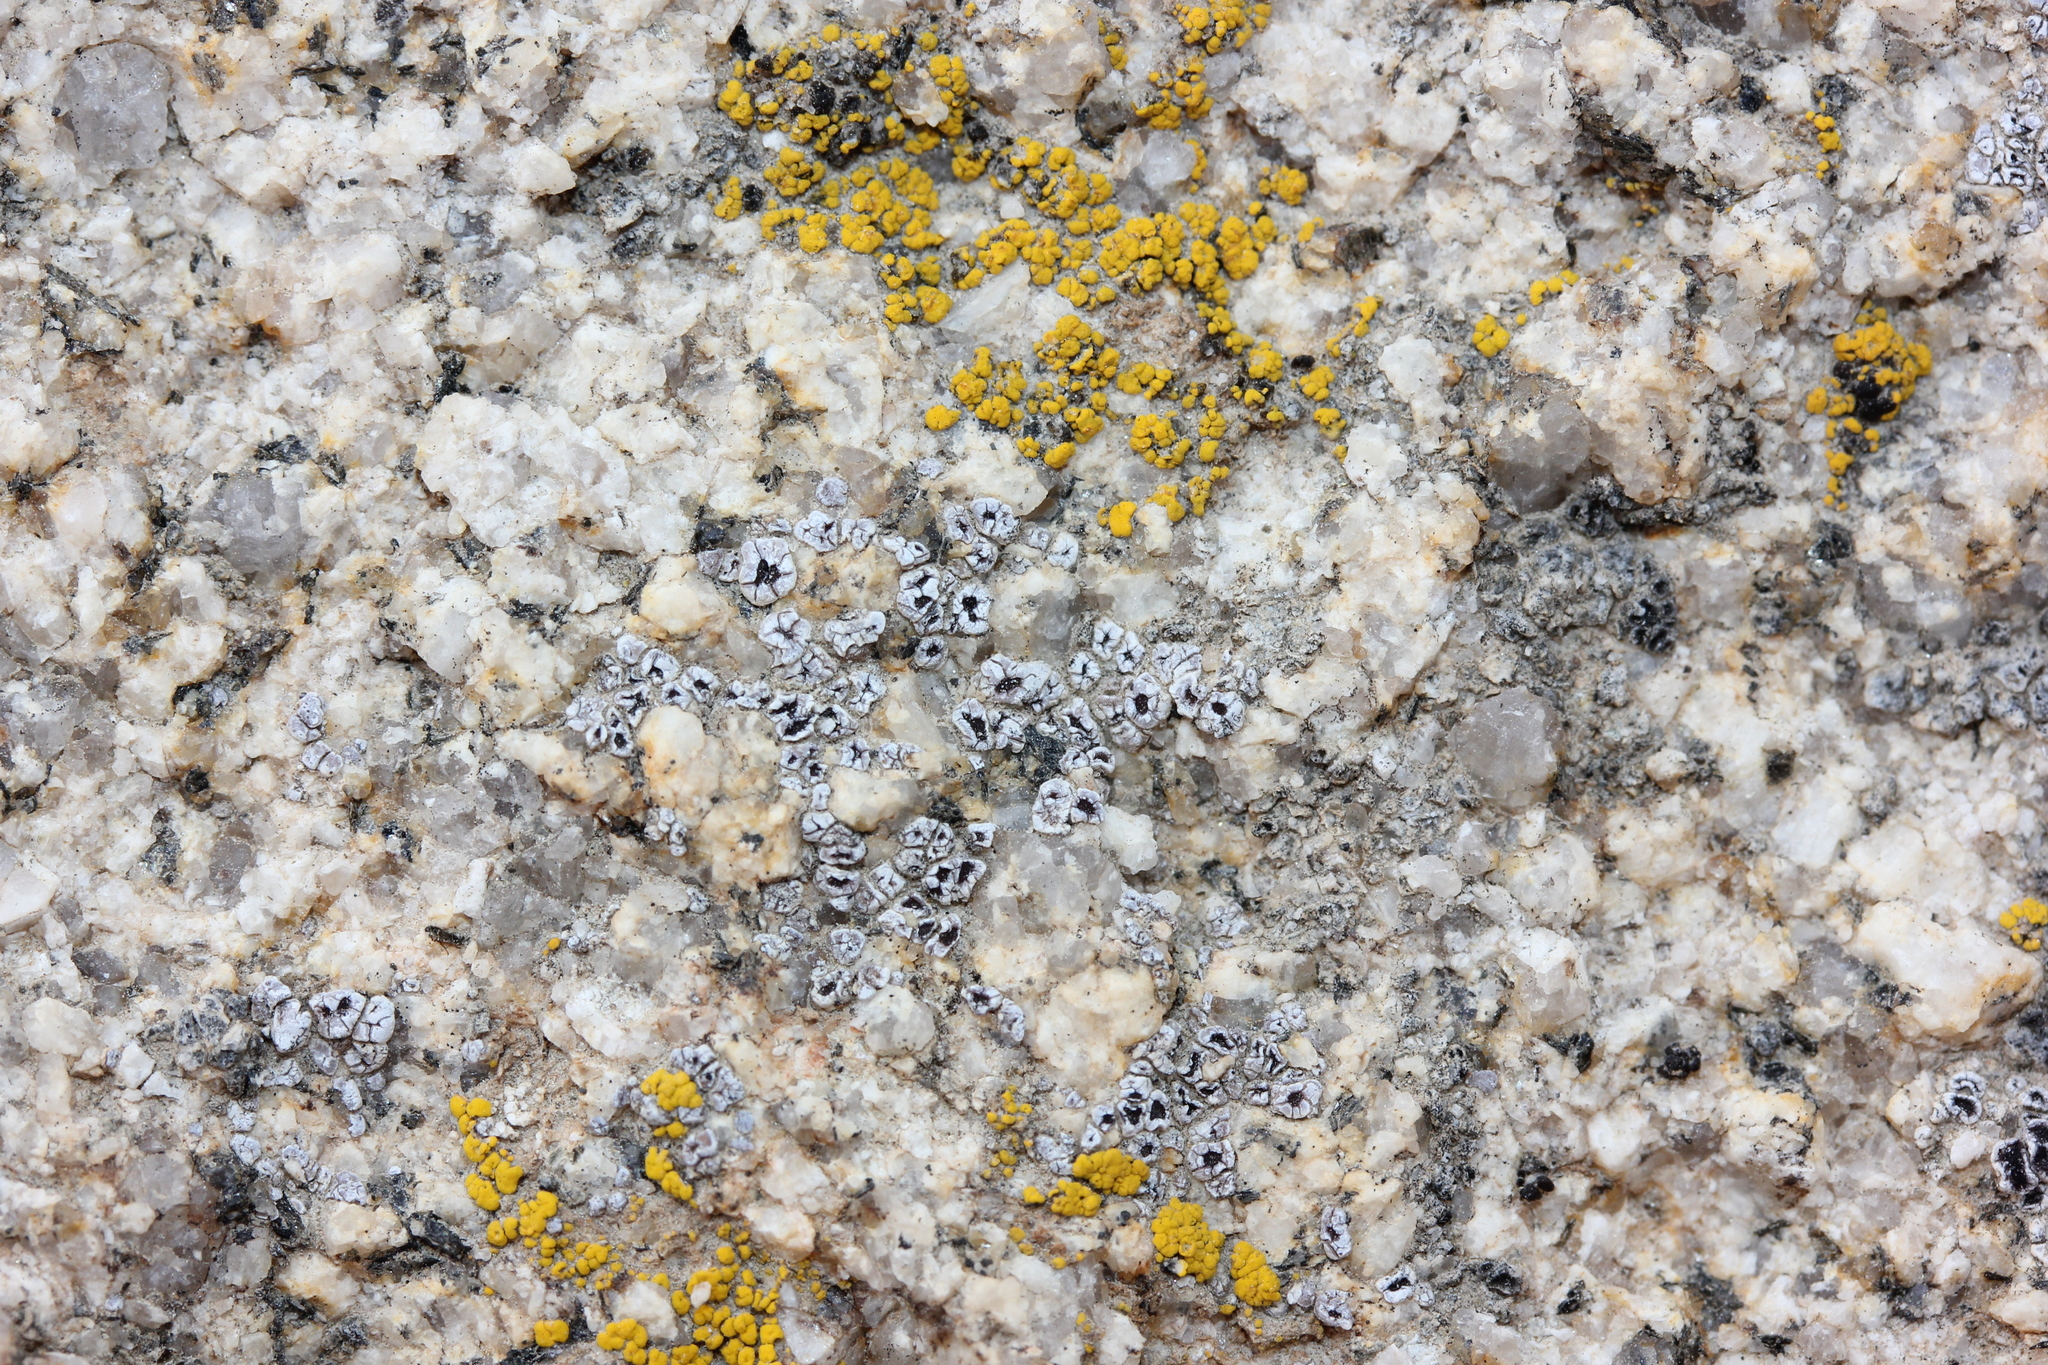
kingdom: Fungi
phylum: Ascomycota
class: Lecanoromycetes
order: Acarosporales
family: Acarosporaceae
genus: Acarospora
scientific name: Acarospora strigata
